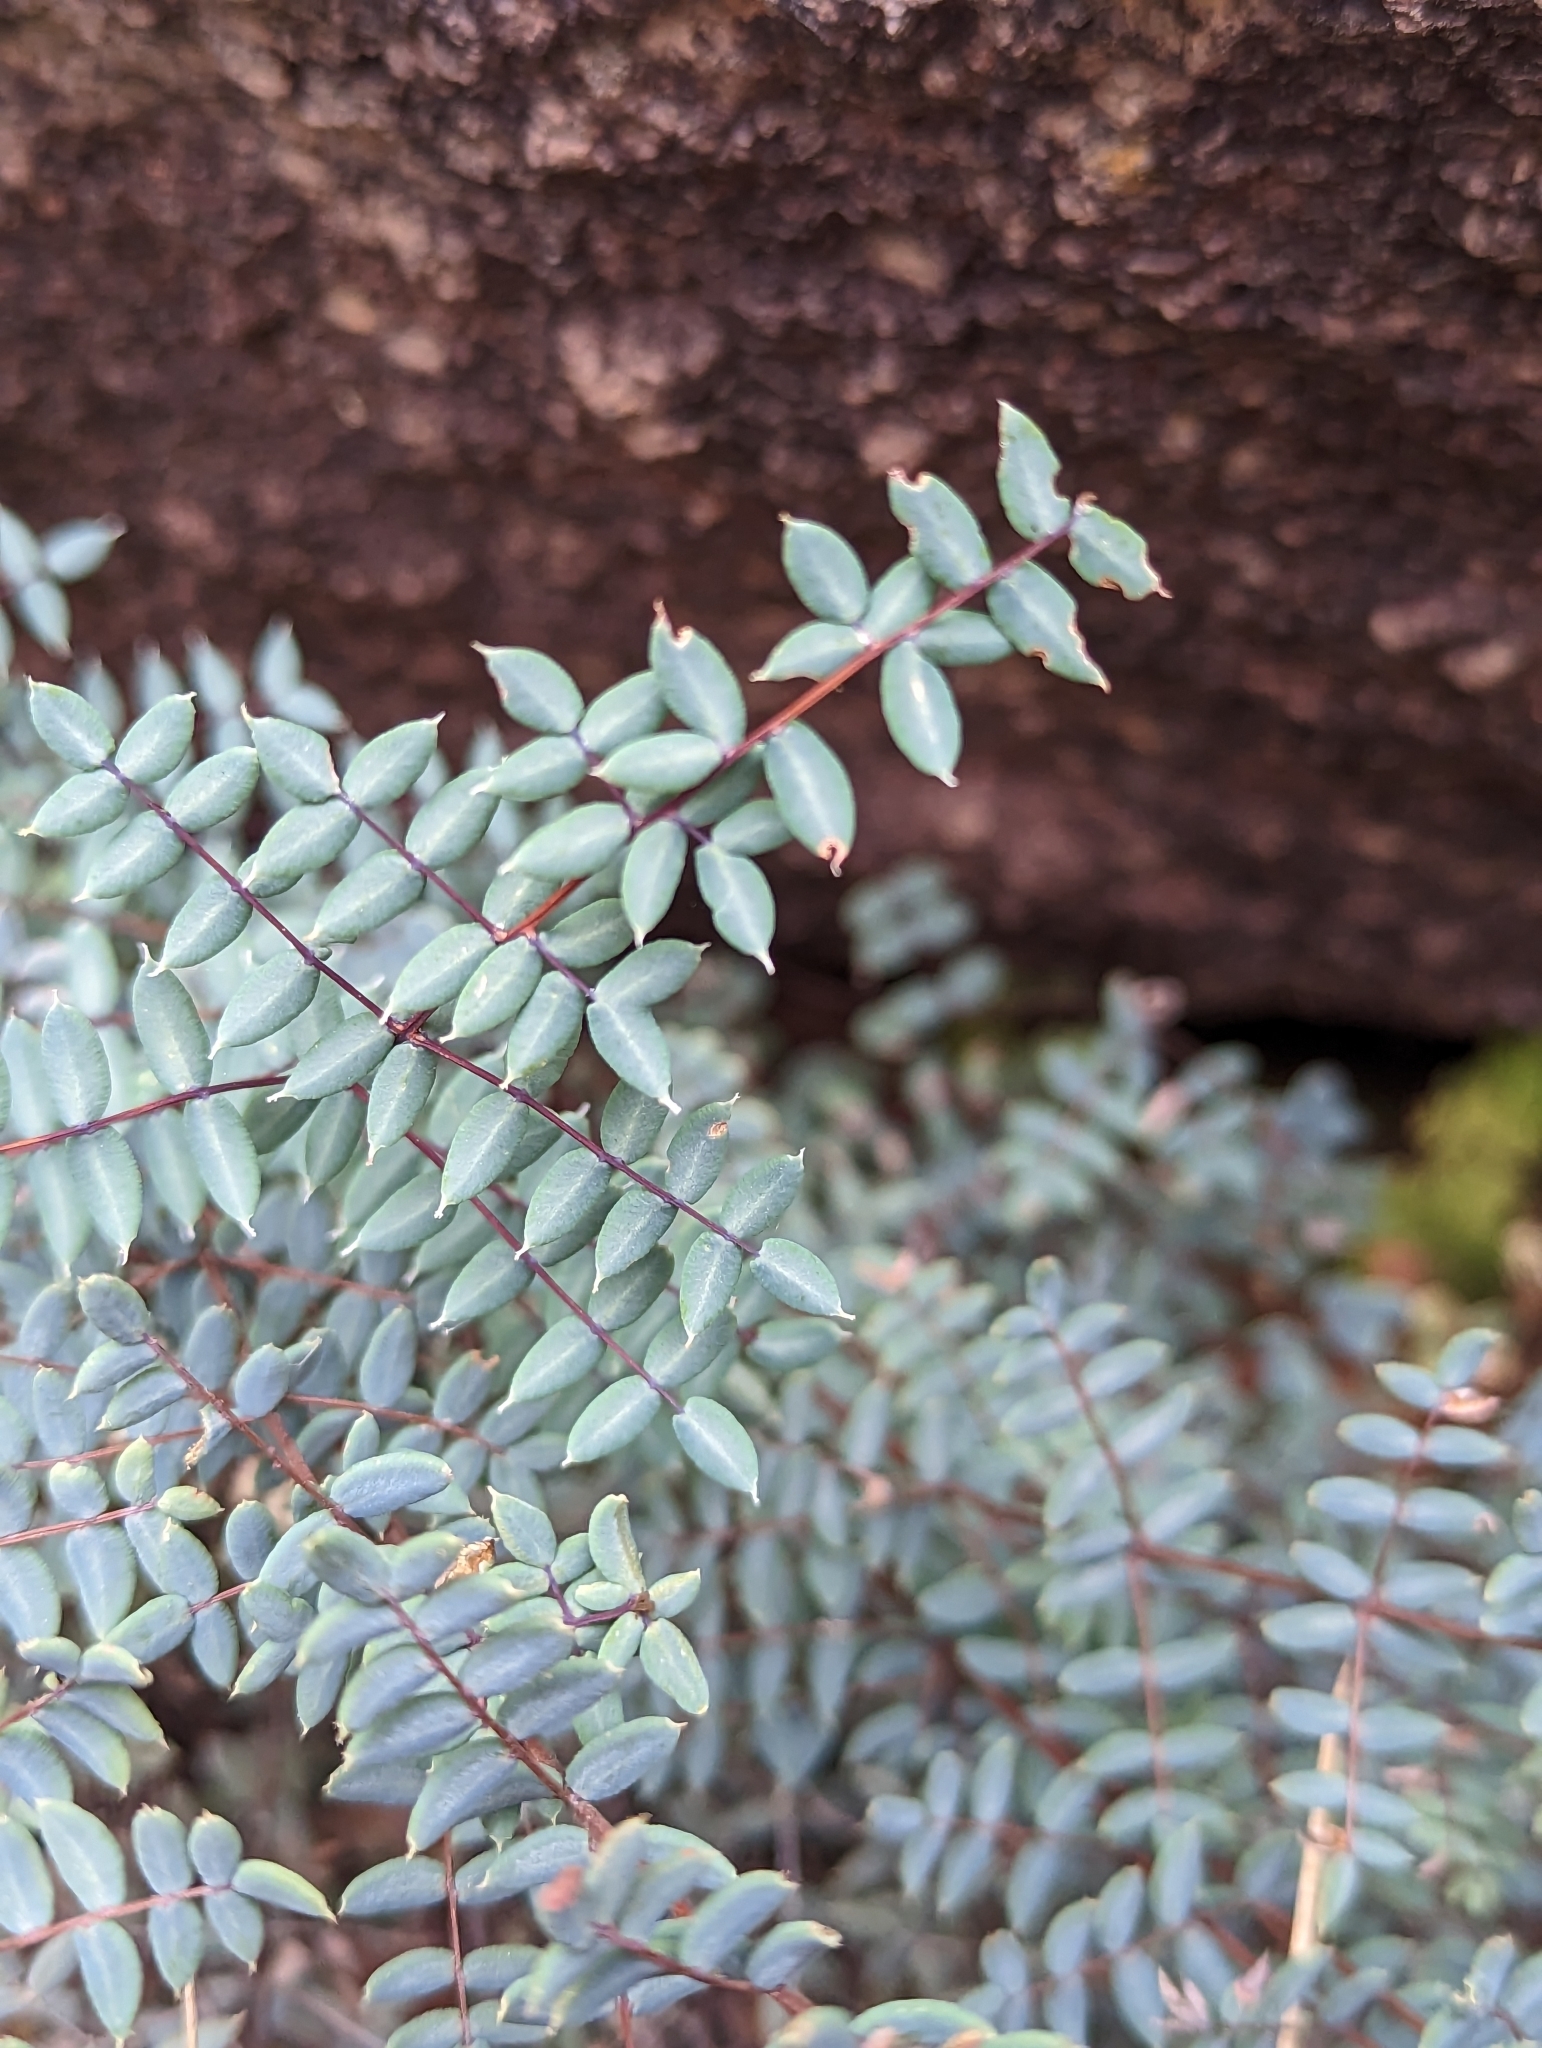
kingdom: Plantae
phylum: Tracheophyta
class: Polypodiopsida
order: Polypodiales
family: Pteridaceae
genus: Pellaea
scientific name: Pellaea truncata
